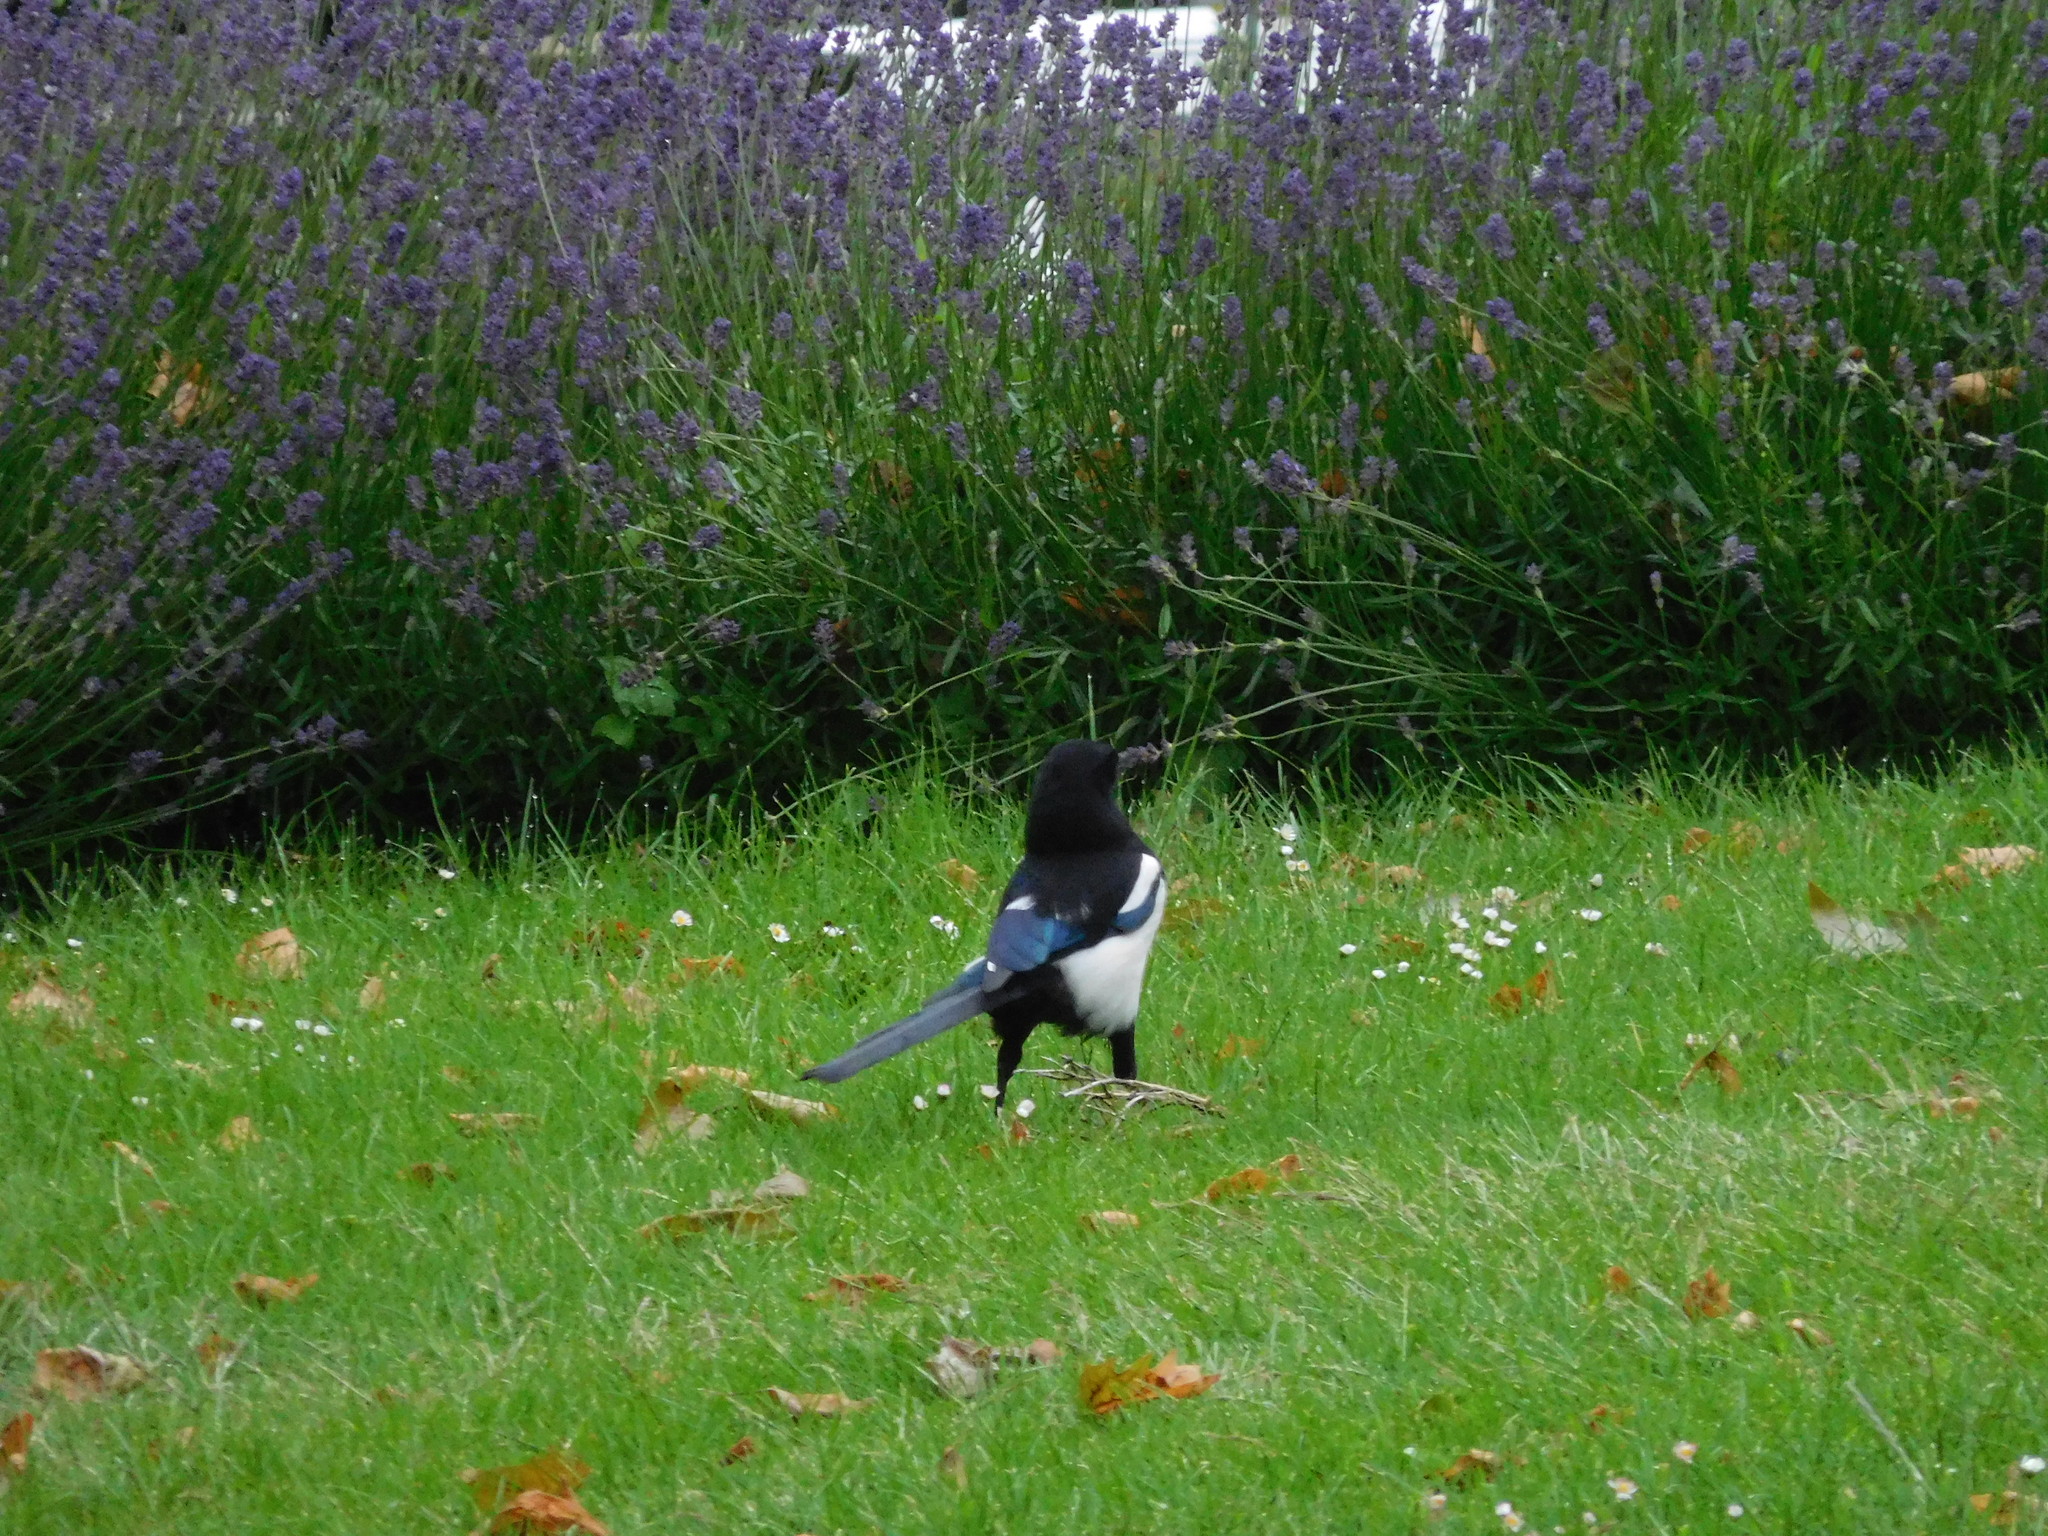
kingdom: Animalia
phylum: Chordata
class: Aves
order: Passeriformes
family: Corvidae
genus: Pica
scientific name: Pica pica
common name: Eurasian magpie
